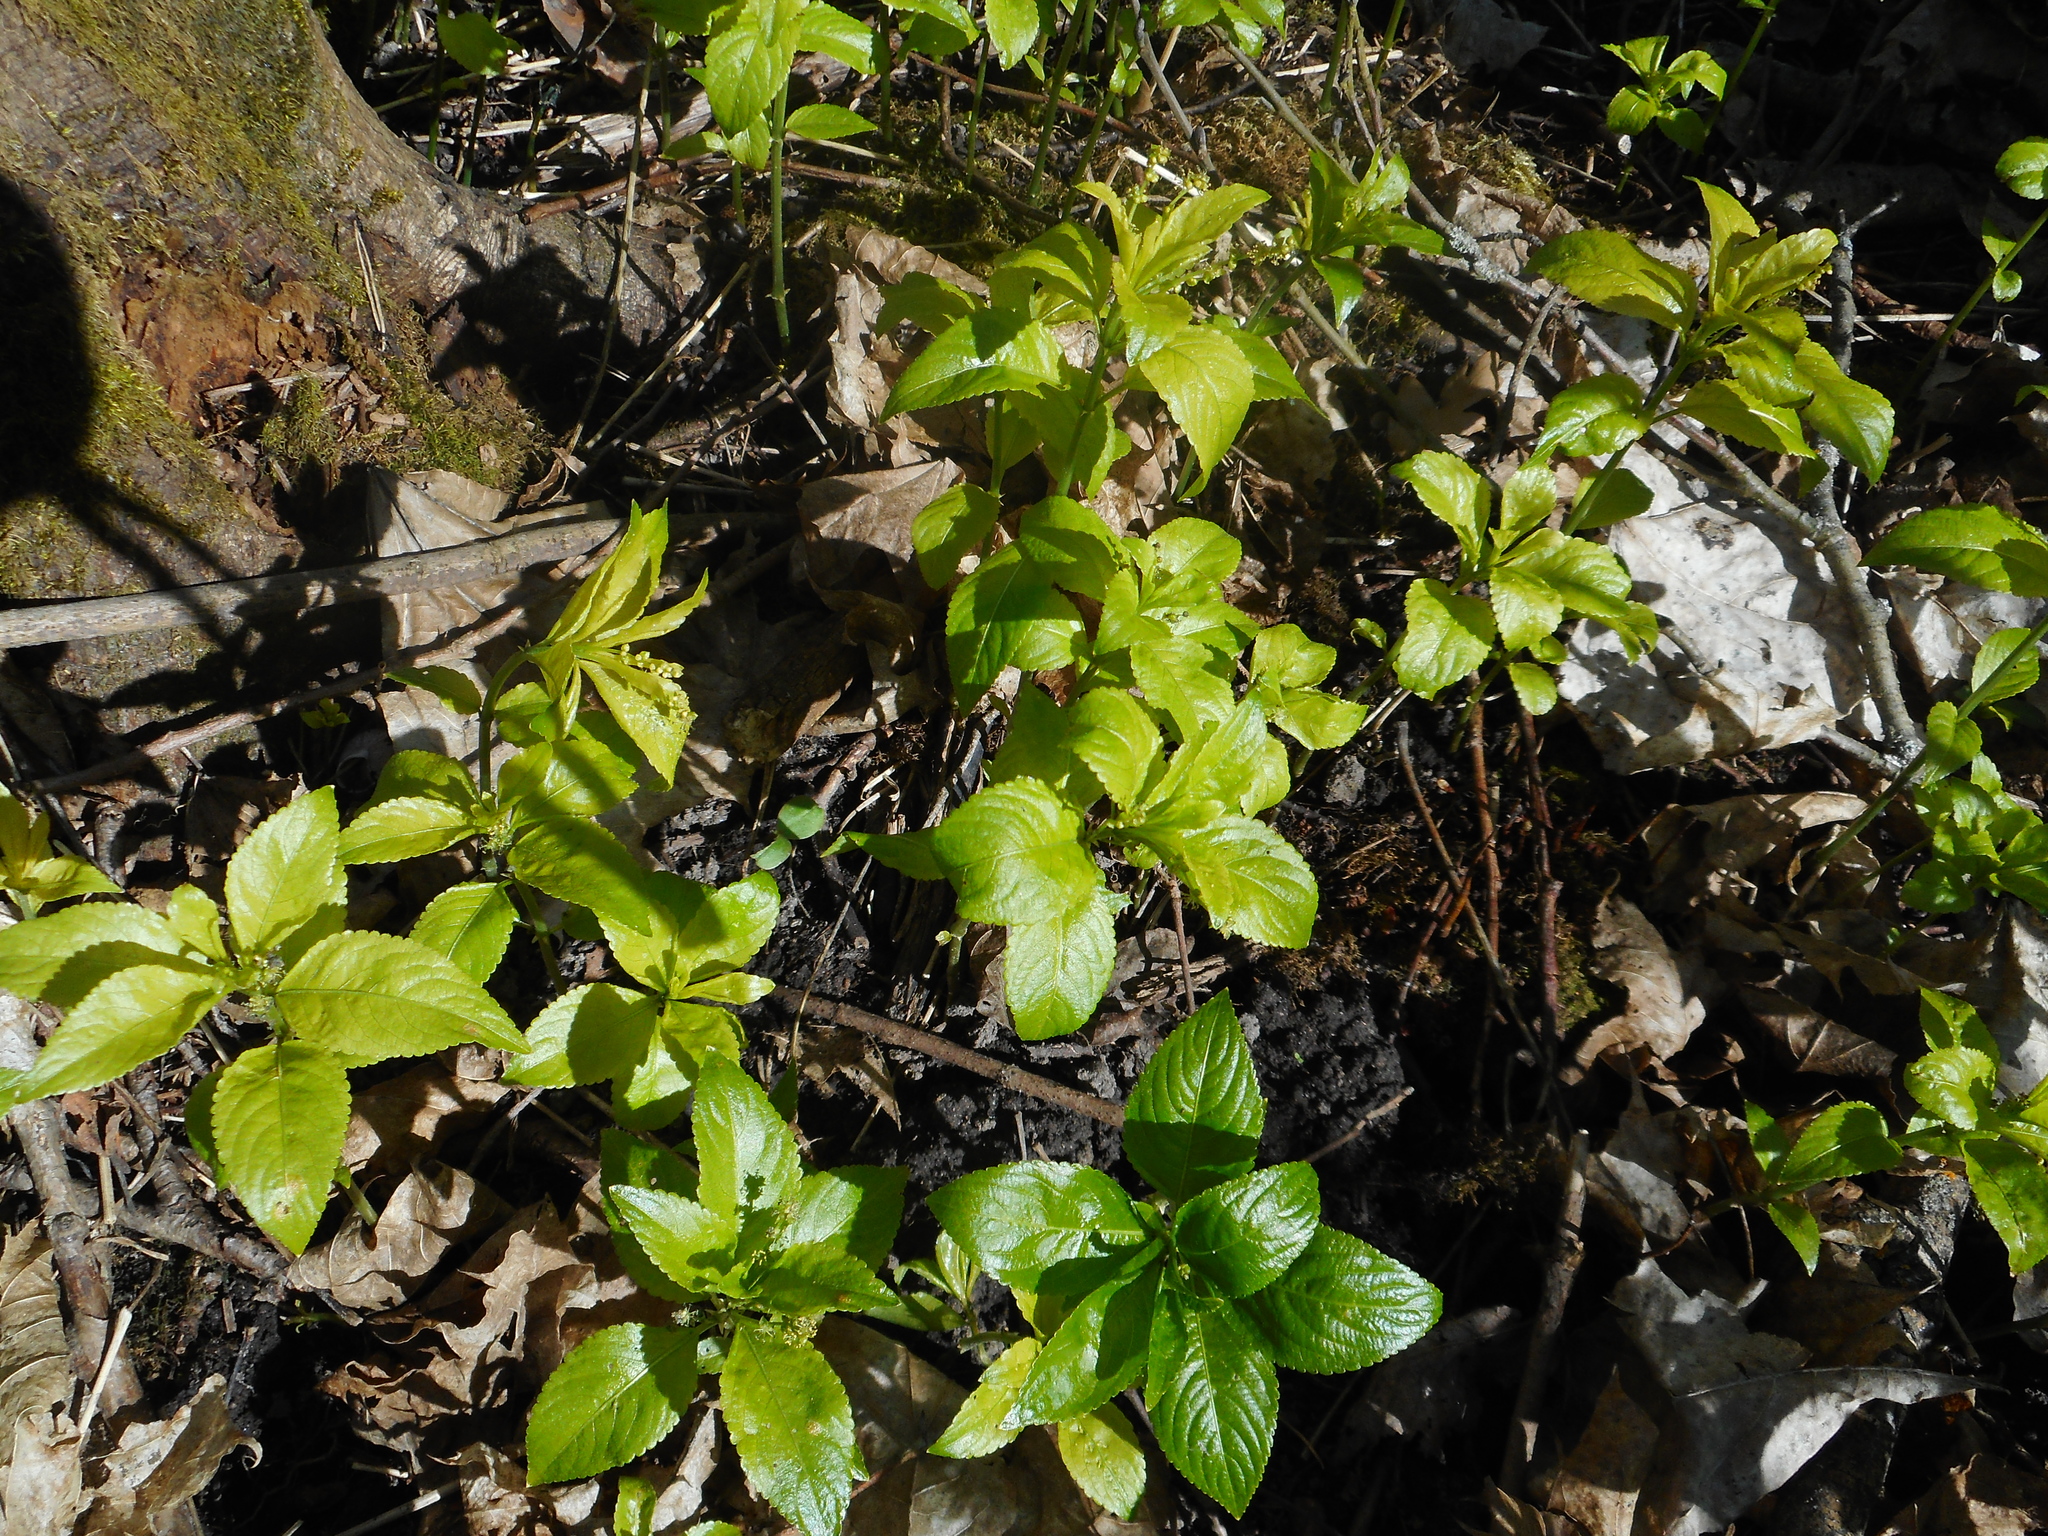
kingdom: Plantae
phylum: Tracheophyta
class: Magnoliopsida
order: Malpighiales
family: Euphorbiaceae
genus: Mercurialis
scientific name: Mercurialis perennis
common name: Dog mercury
